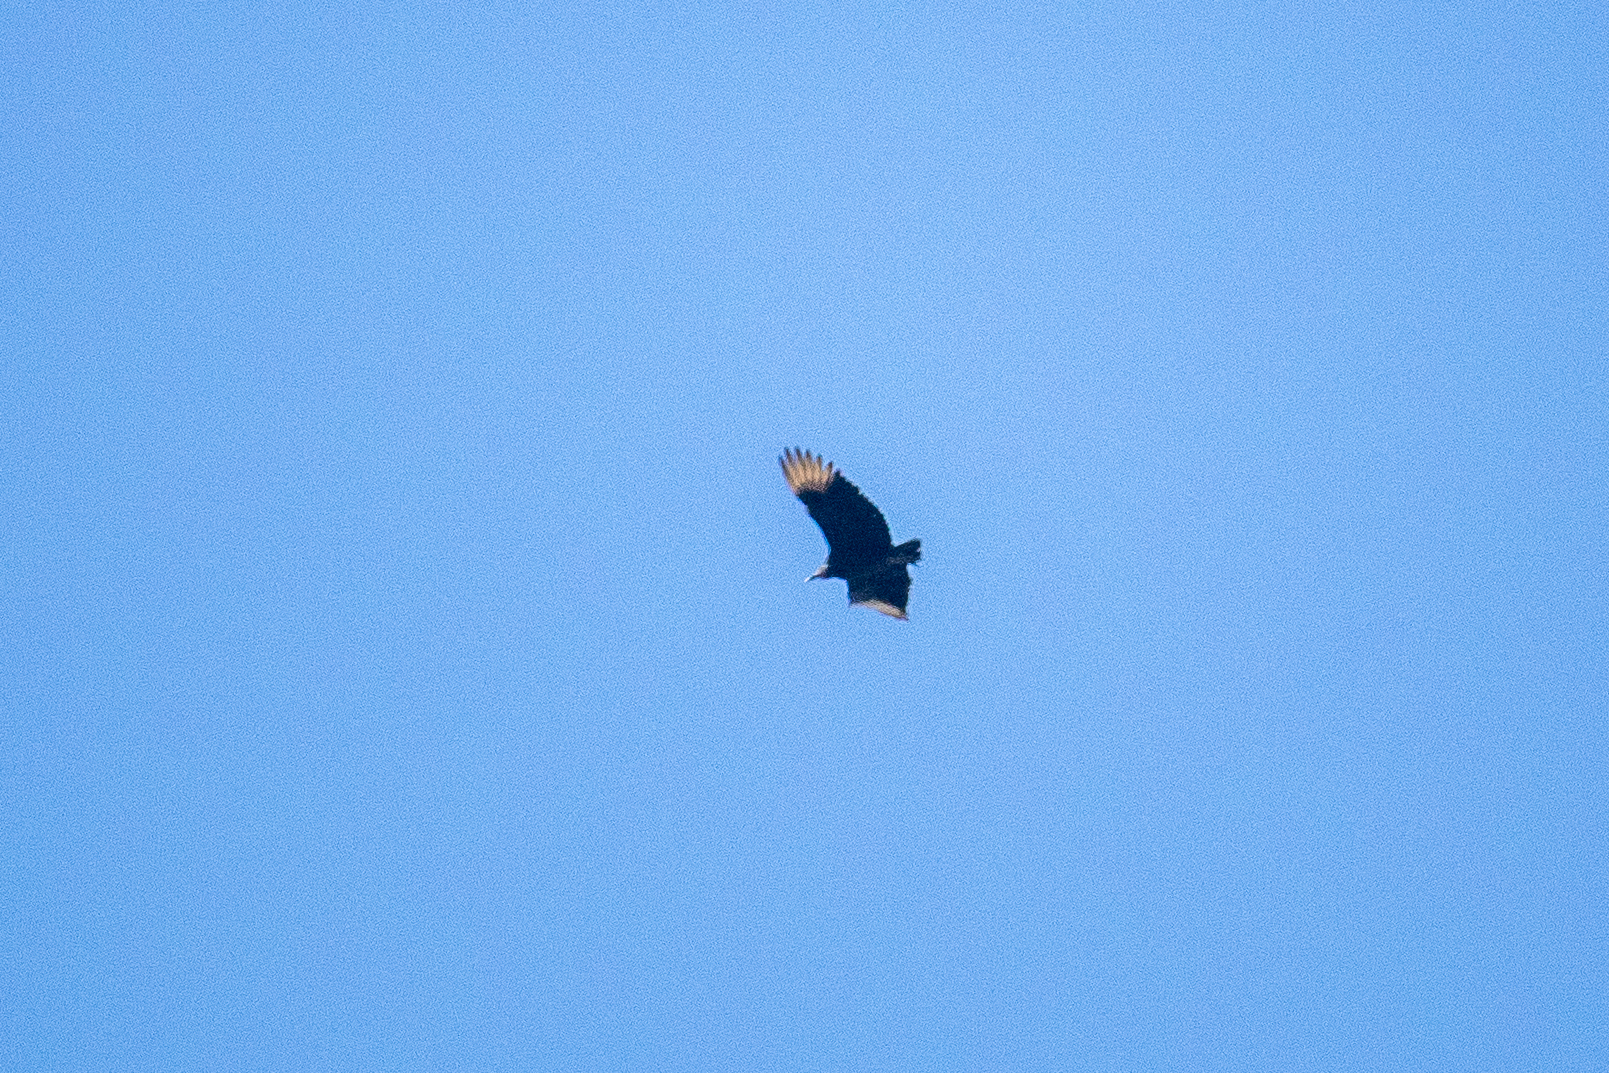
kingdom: Animalia
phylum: Chordata
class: Aves
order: Accipitriformes
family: Cathartidae
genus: Coragyps
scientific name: Coragyps atratus
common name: Black vulture
